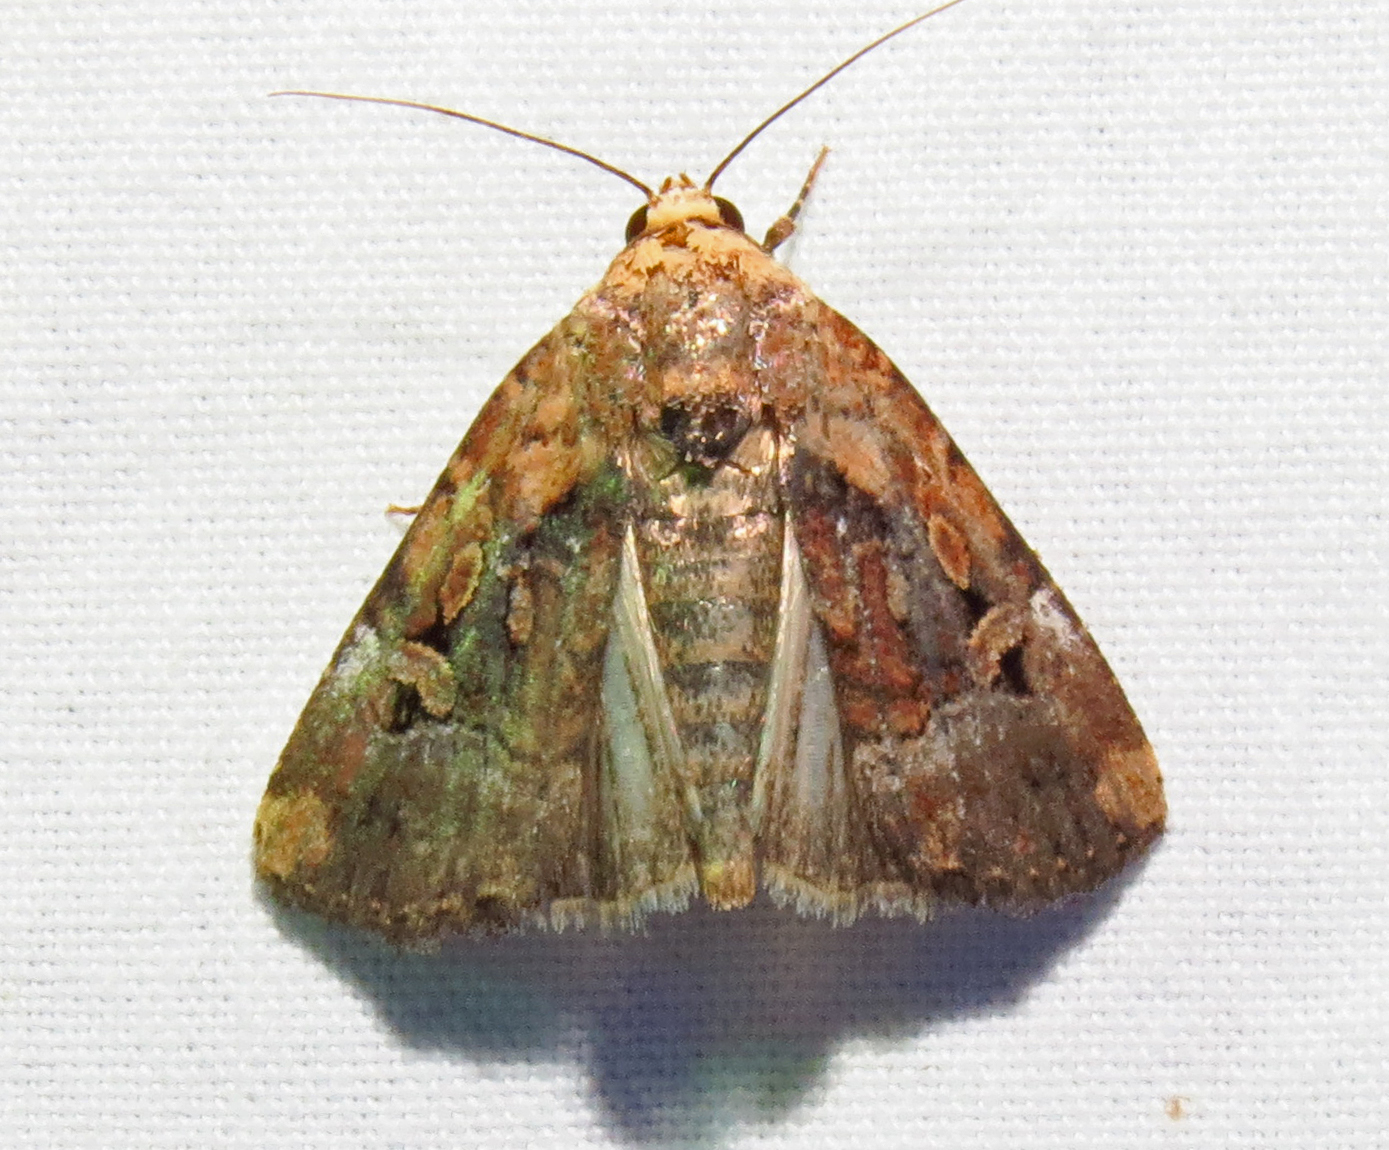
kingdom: Animalia
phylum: Arthropoda
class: Insecta
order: Lepidoptera
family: Noctuidae
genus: Elaphria
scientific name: Elaphria chalcedonia
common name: Chalcedony midget
